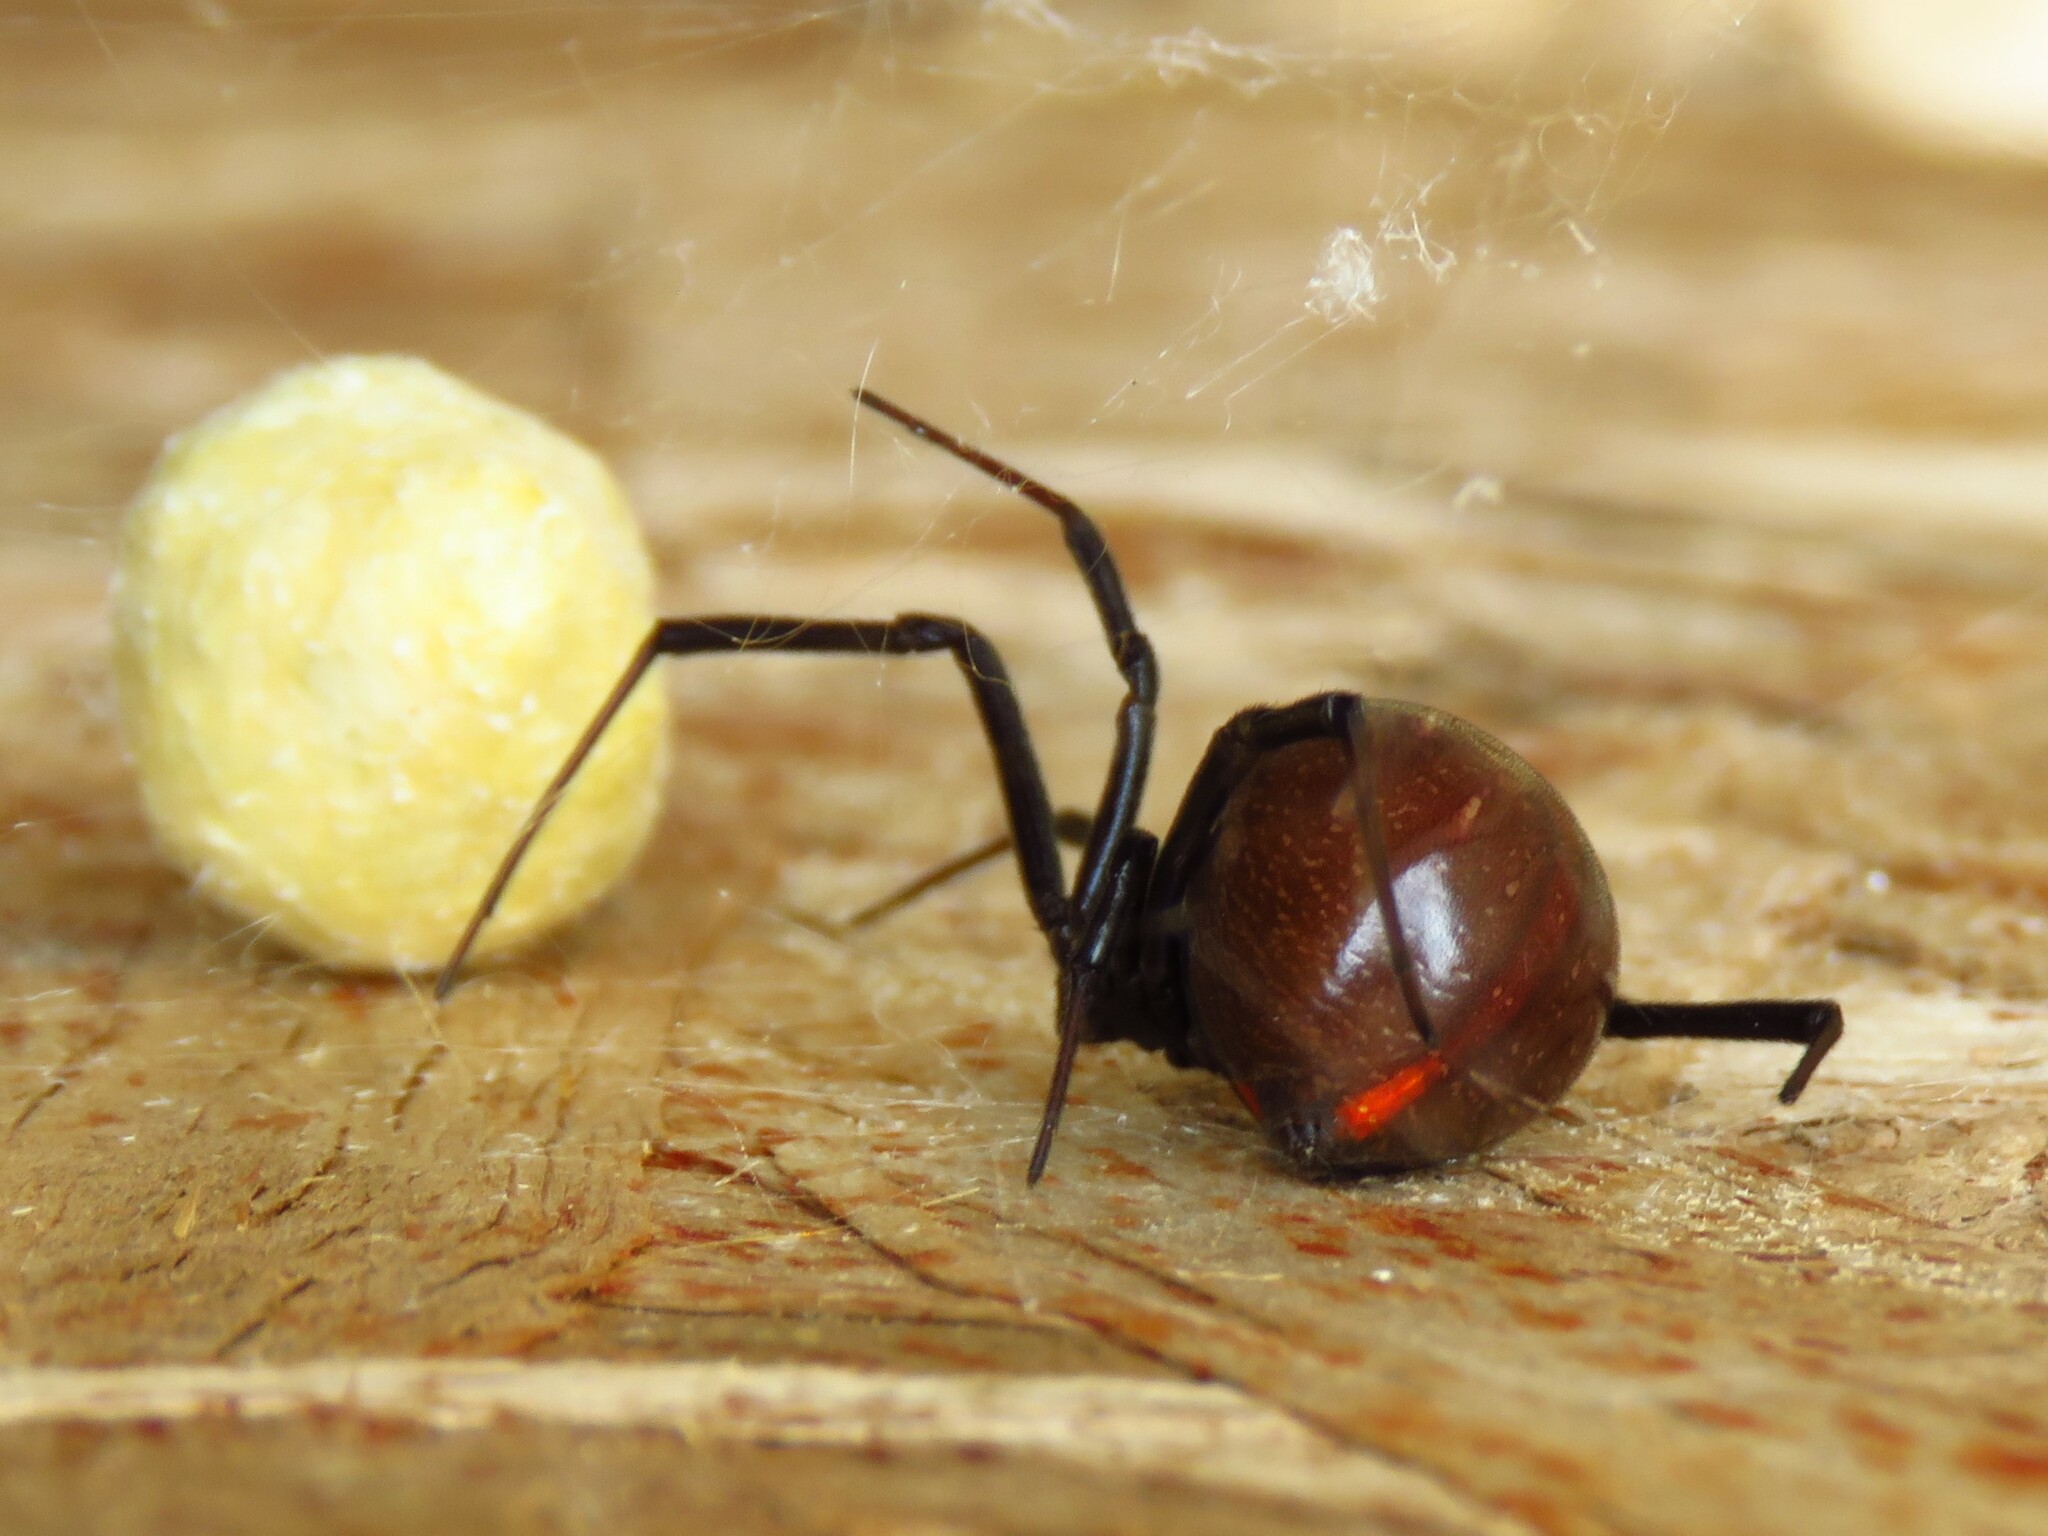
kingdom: Animalia
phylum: Arthropoda
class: Arachnida
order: Araneae
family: Theridiidae
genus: Latrodectus
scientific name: Latrodectus hesperus
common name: Western black widow
